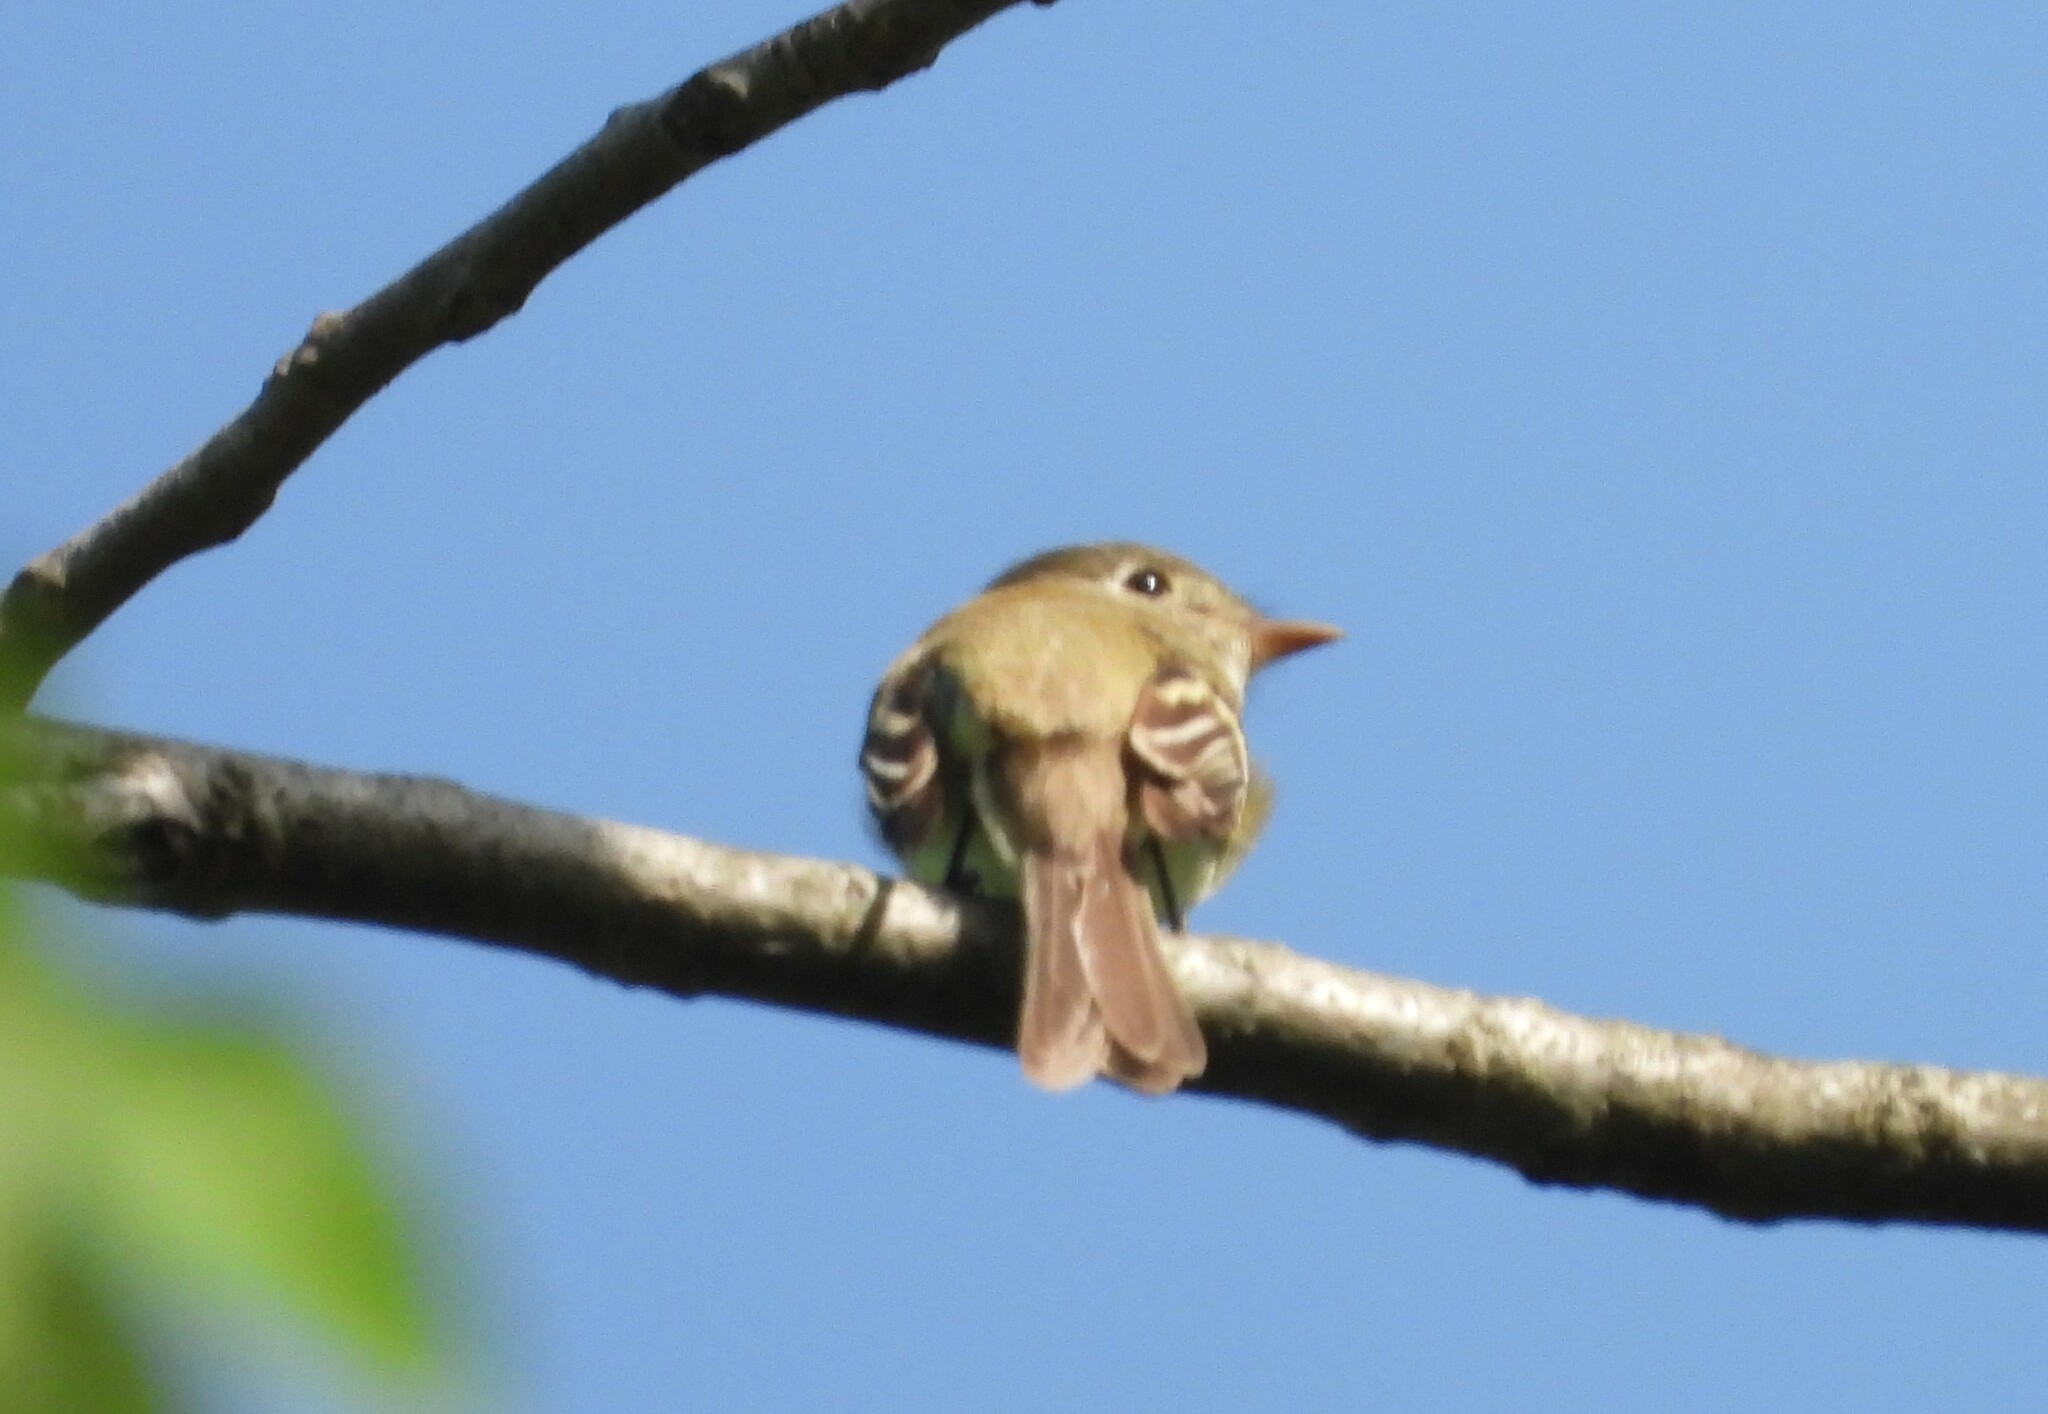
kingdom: Animalia
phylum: Chordata
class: Aves
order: Passeriformes
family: Tyrannidae
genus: Empidonax
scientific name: Empidonax minimus
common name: Least flycatcher
